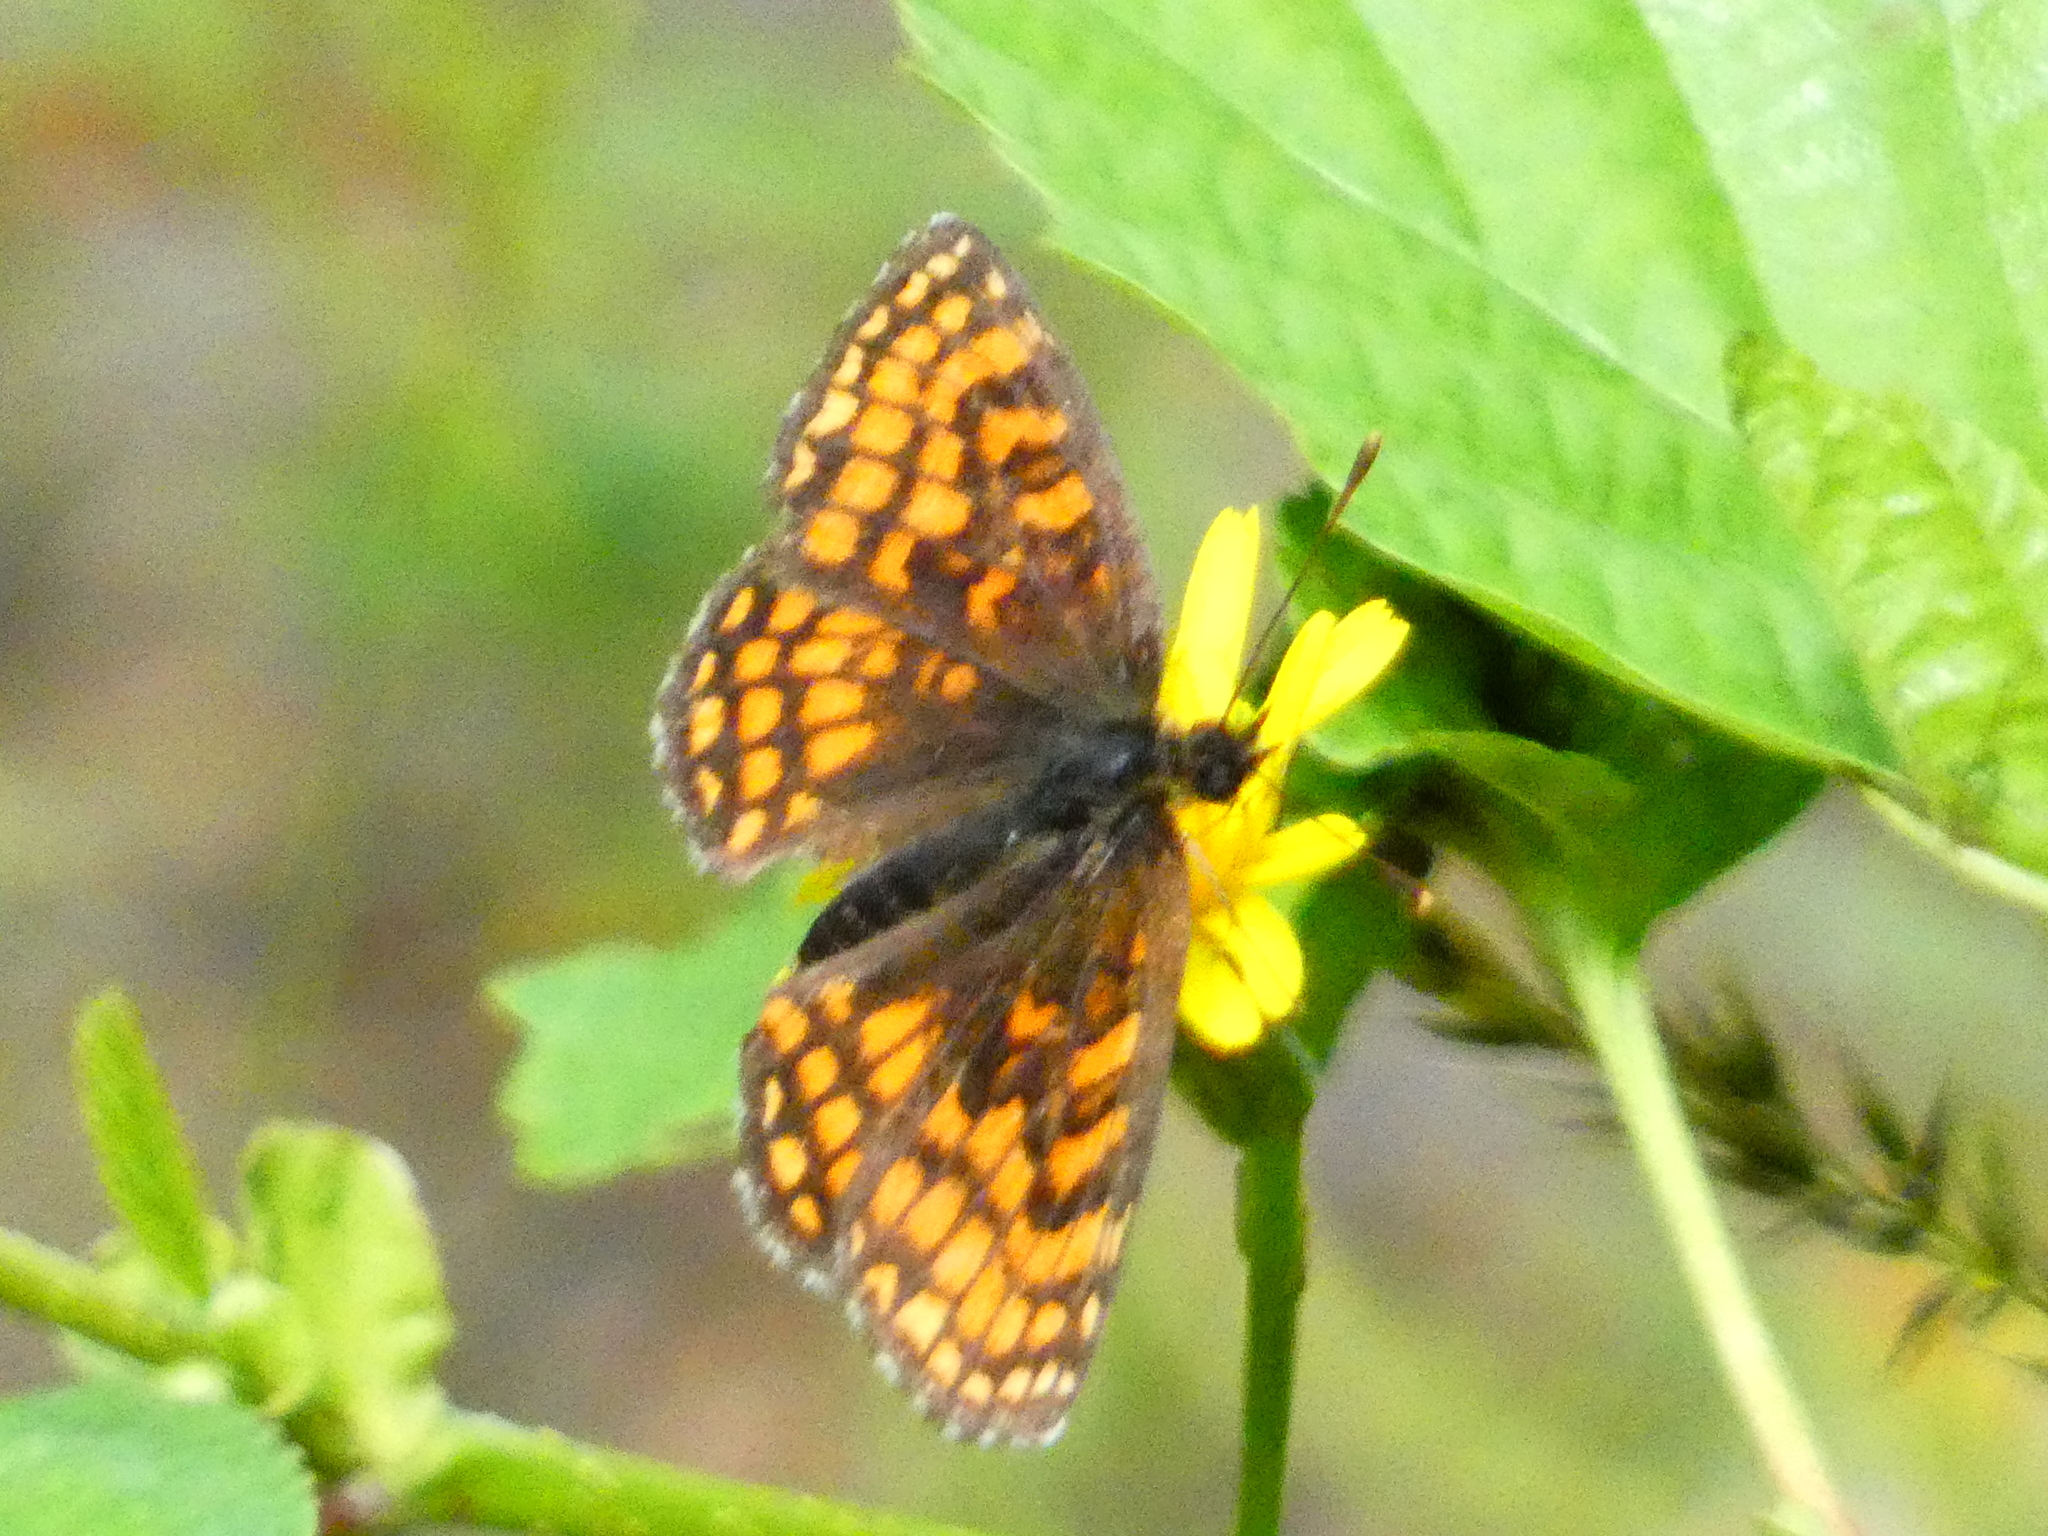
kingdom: Animalia
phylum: Arthropoda
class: Insecta
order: Lepidoptera
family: Nymphalidae
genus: Melitaea
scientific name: Melitaea athalia
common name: Heath fritillary
